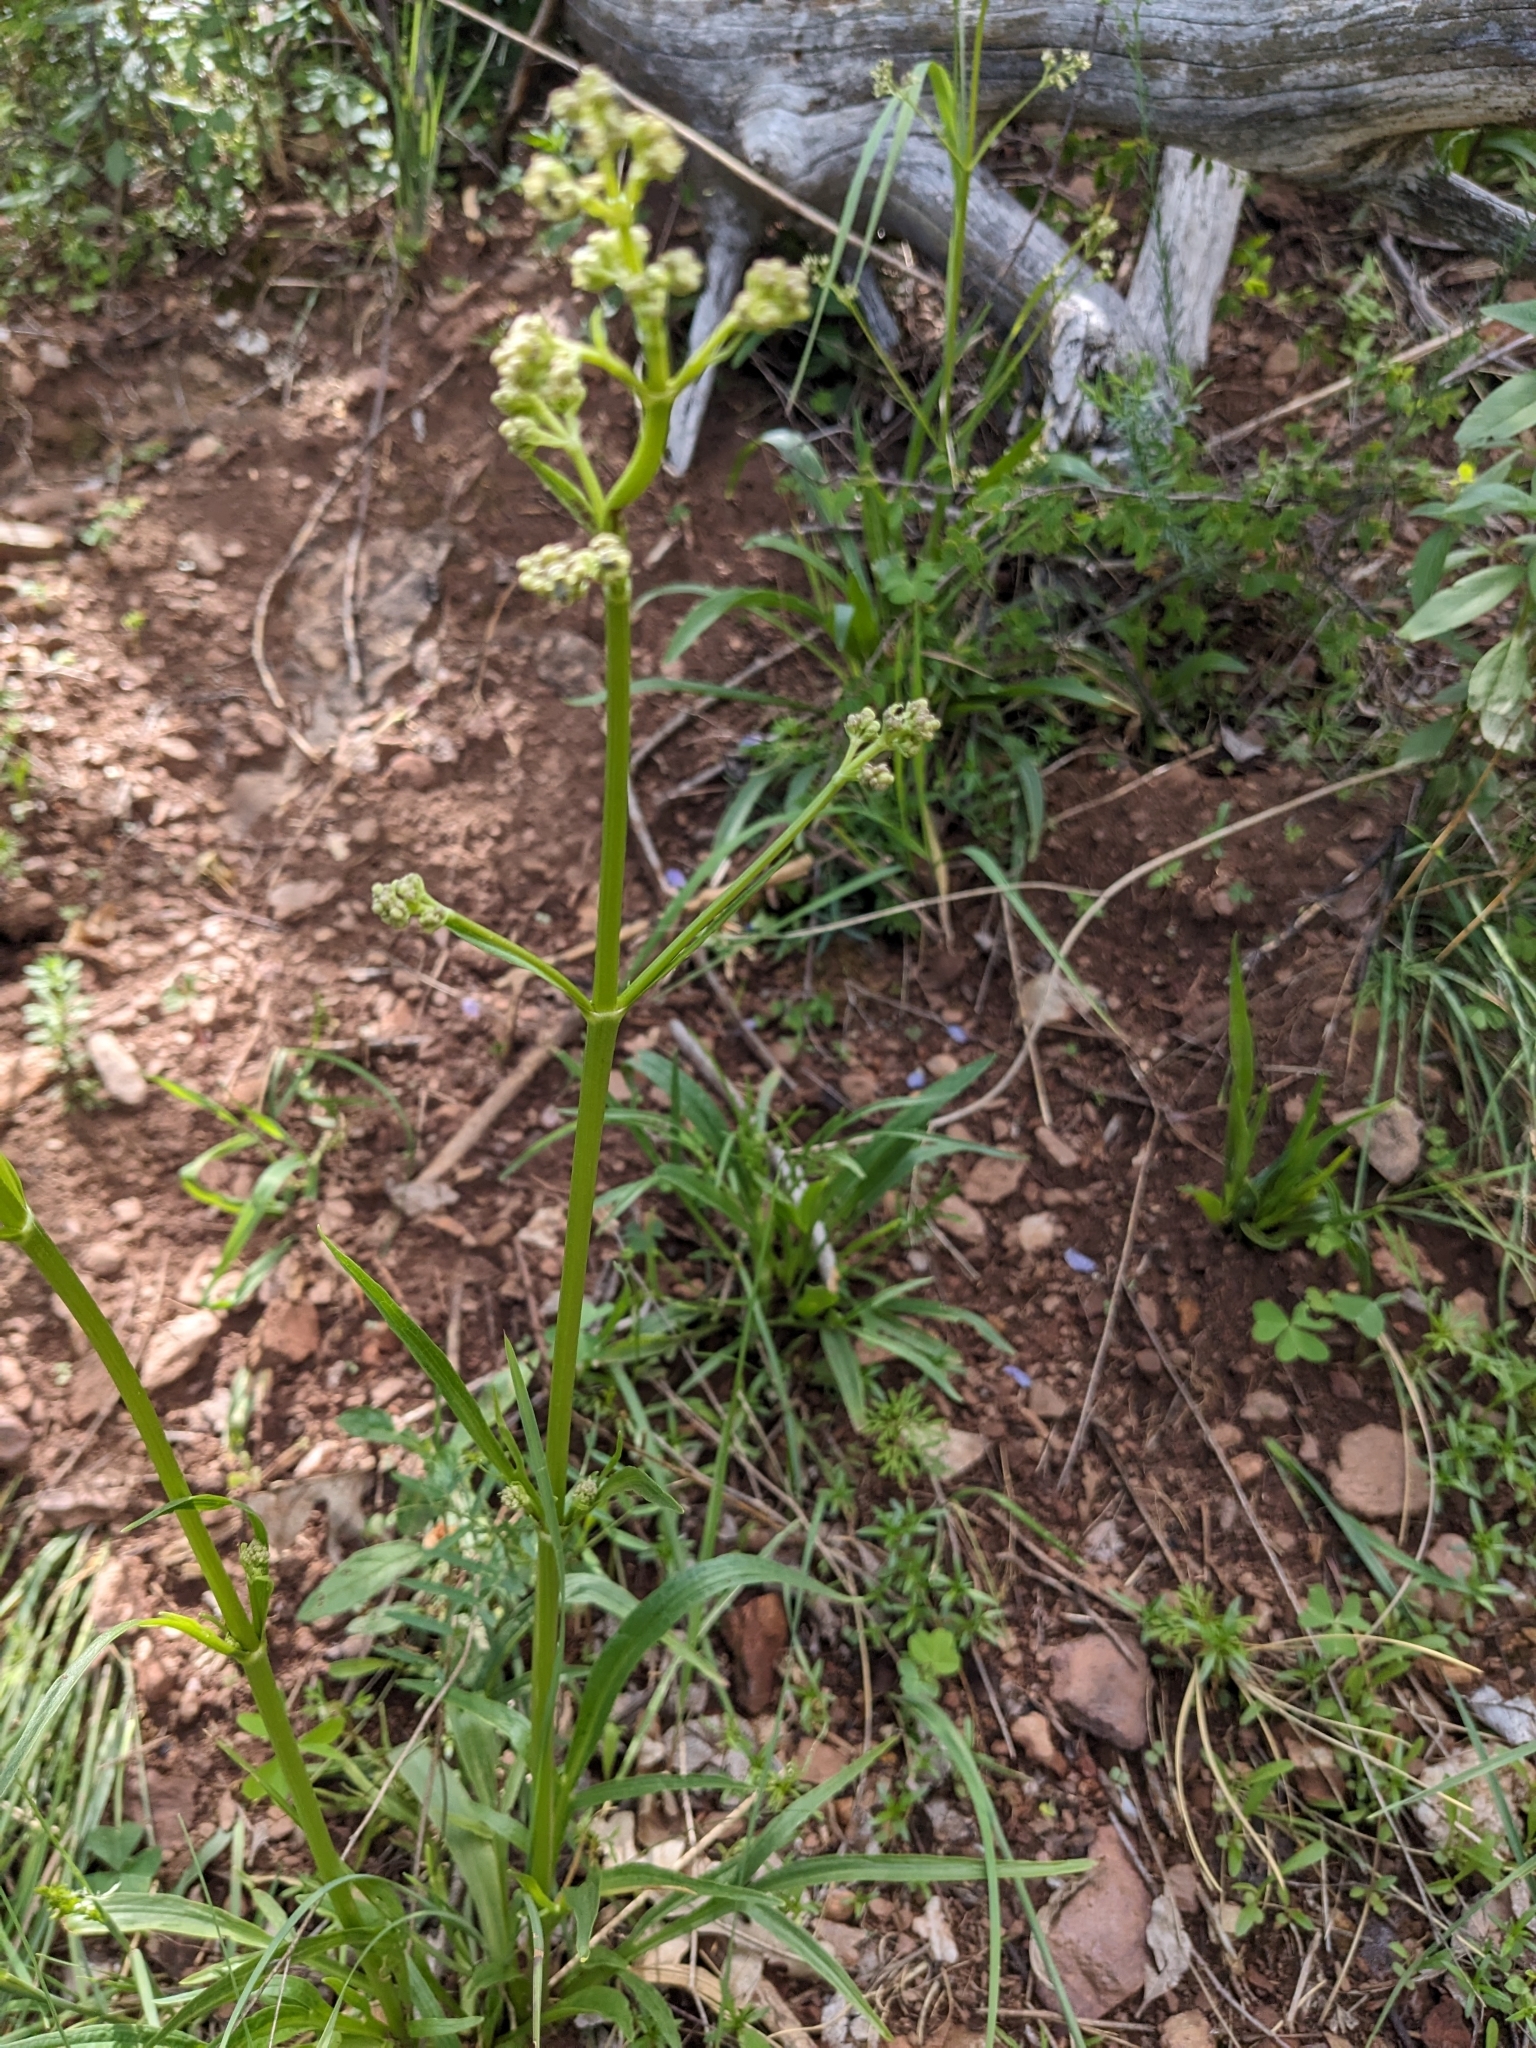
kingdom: Plantae
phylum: Tracheophyta
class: Magnoliopsida
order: Dipsacales
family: Caprifoliaceae
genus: Valeriana
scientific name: Valeriana edulis
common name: Taproot valerian
